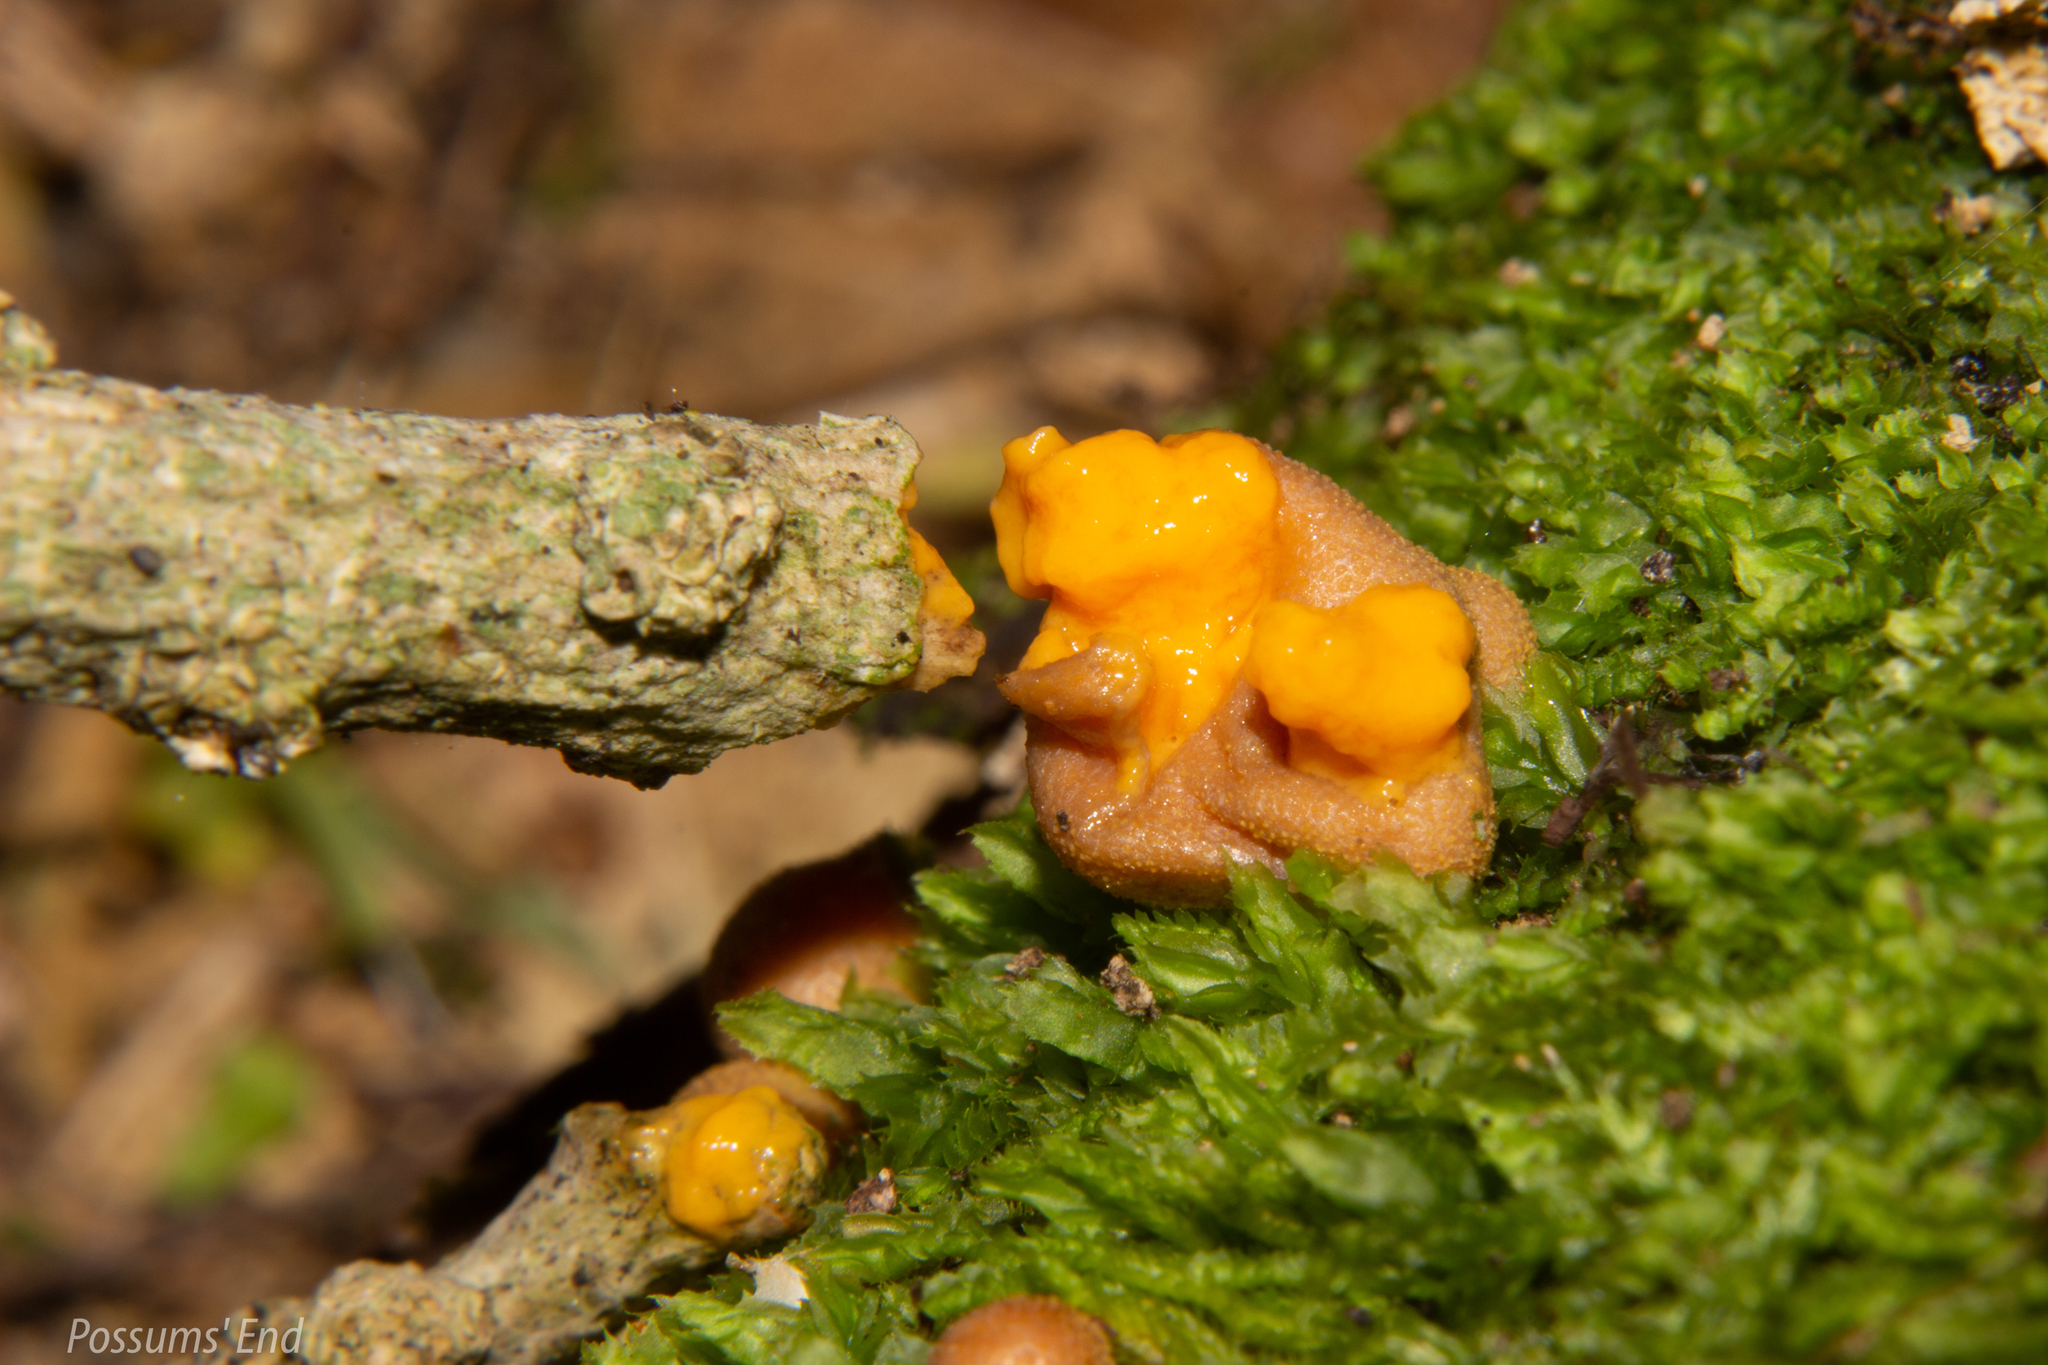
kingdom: Protozoa
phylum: Mycetozoa
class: Myxomycetes
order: Cribrariales
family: Tubiferaceae
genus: Lycogala
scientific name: Lycogala epidendrum
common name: Wolf's milk
